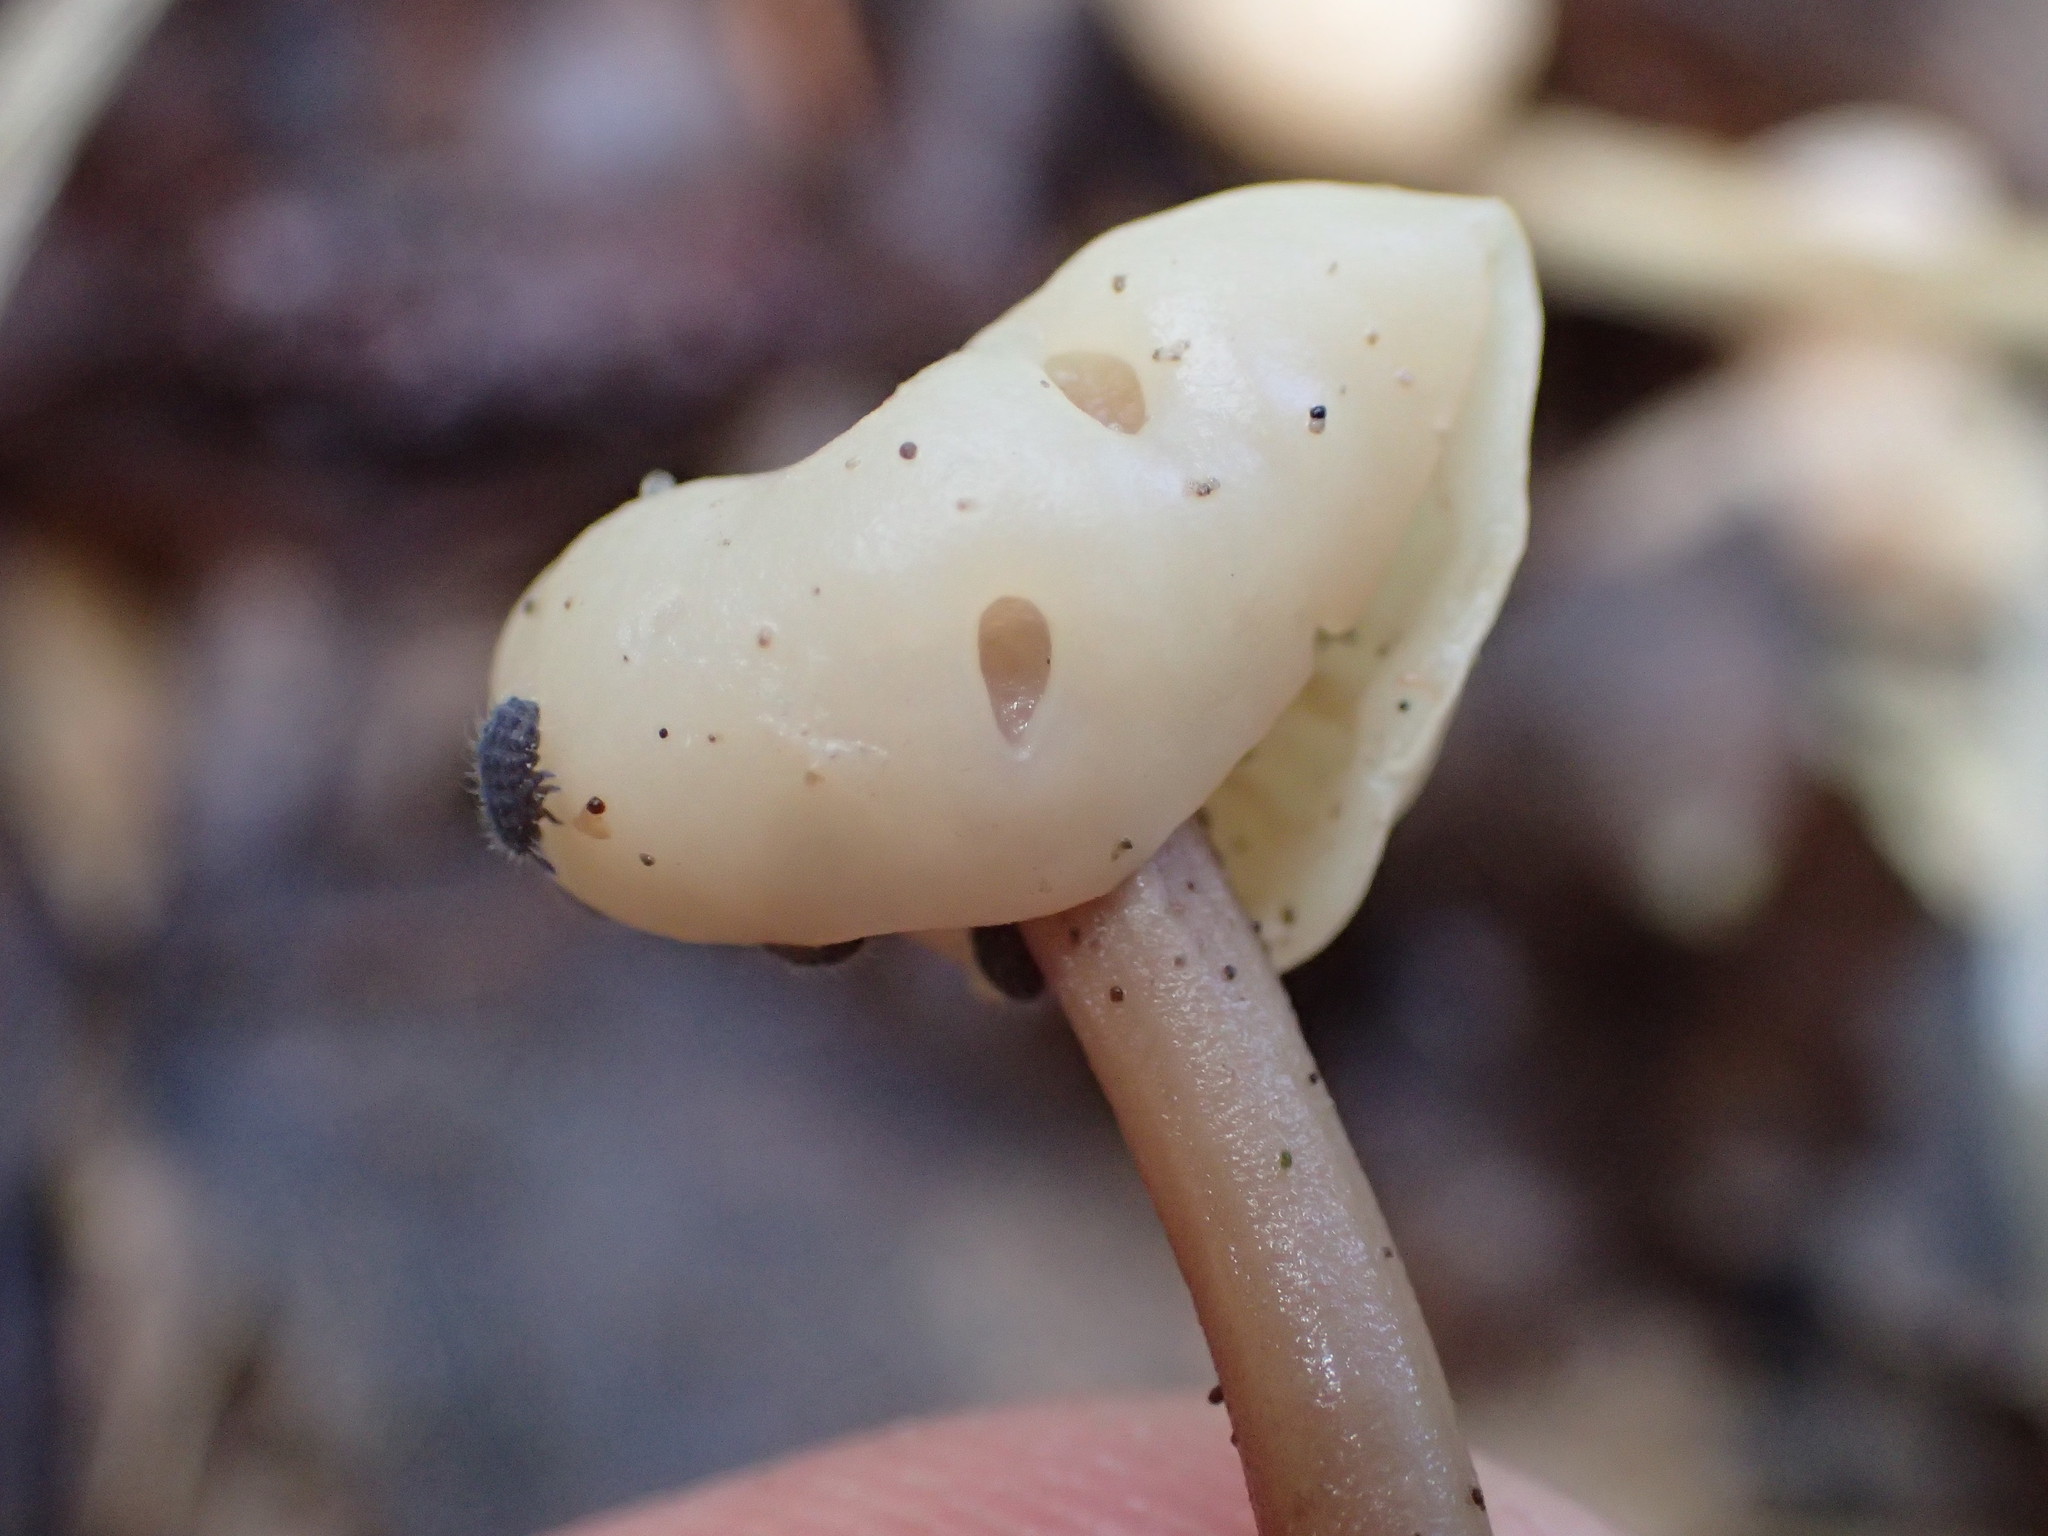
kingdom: Fungi
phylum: Ascomycota
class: Leotiomycetes
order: Rhytismatales
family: Cudoniaceae
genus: Cudonia
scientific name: Cudonia circinans
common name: Redleg jellybaby
